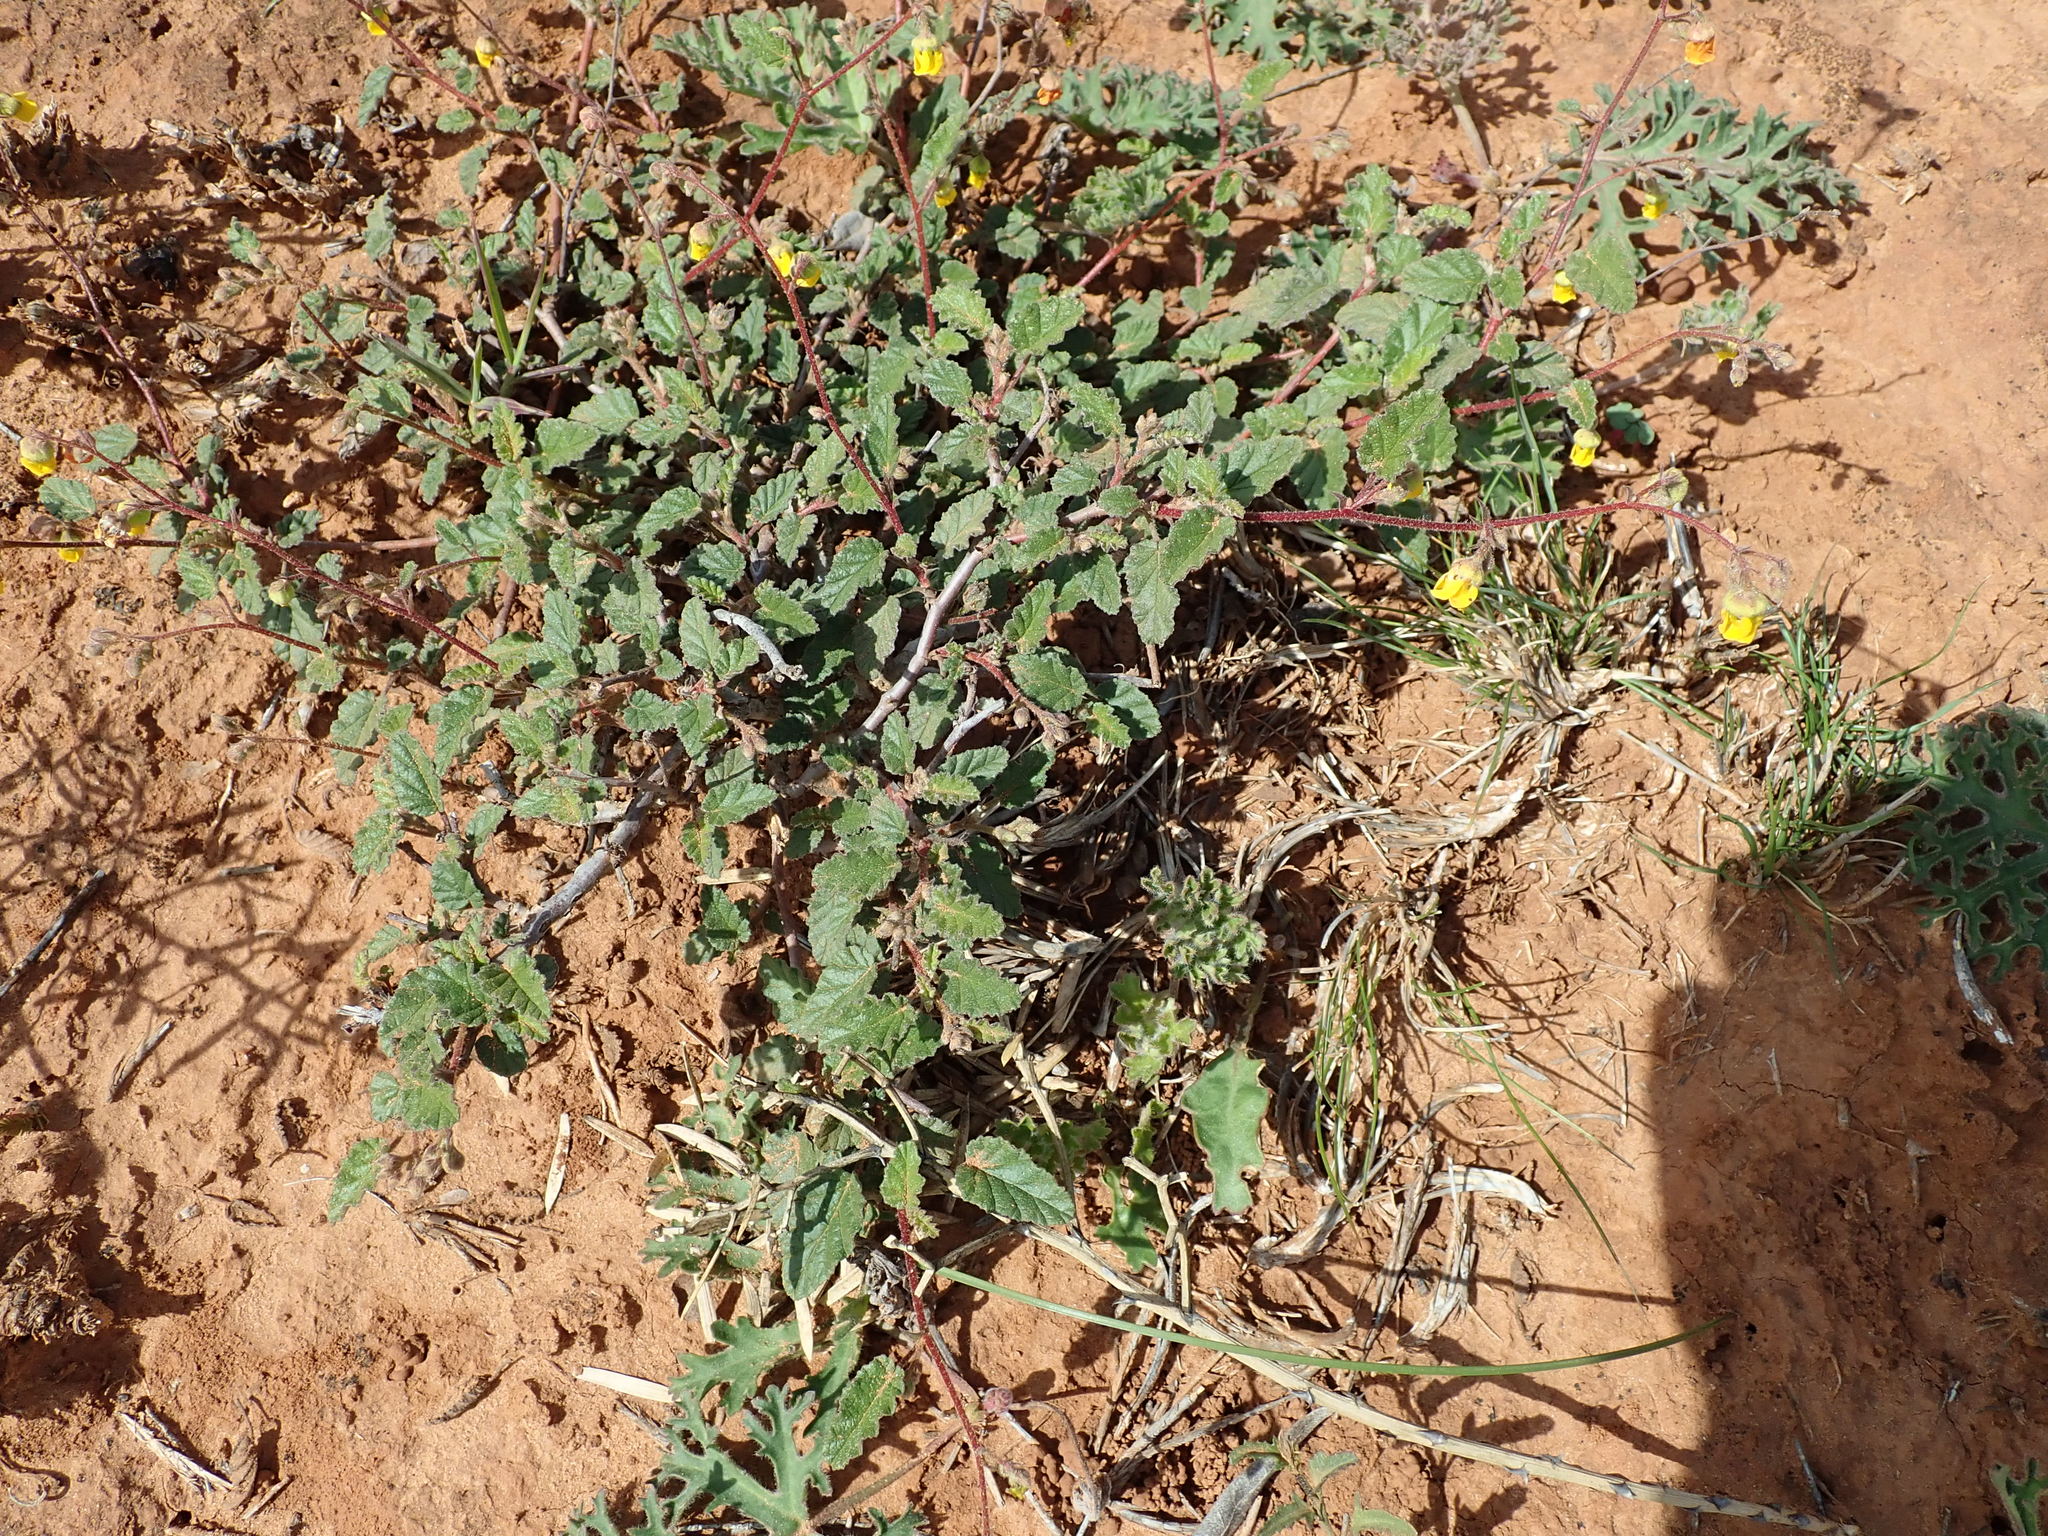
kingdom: Plantae
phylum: Tracheophyta
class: Magnoliopsida
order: Malvales
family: Malvaceae
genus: Hermannia
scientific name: Hermannia althaeifolia
